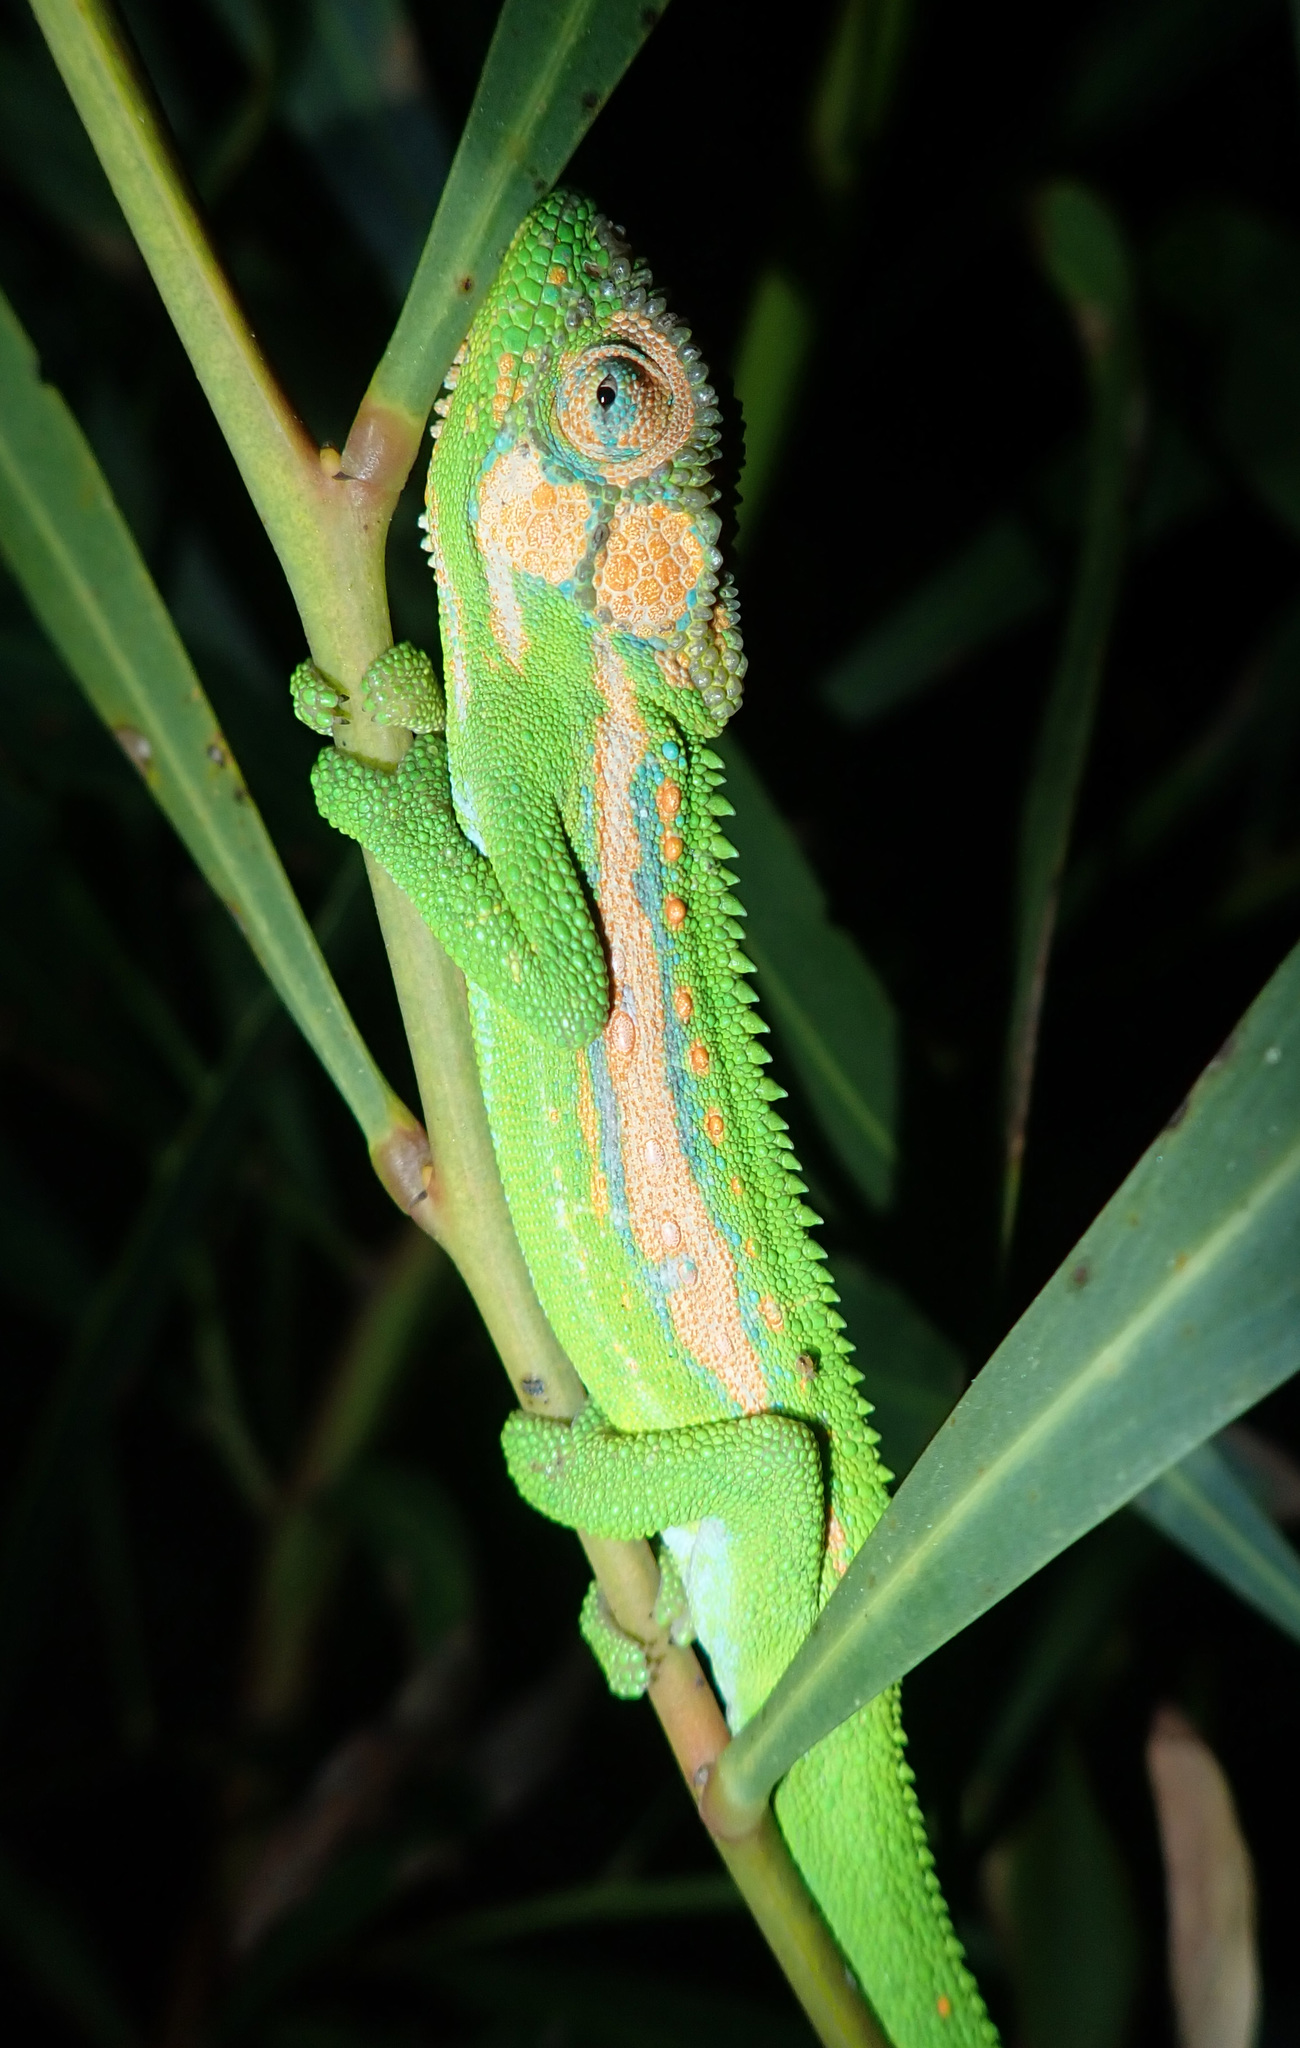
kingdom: Animalia
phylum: Chordata
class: Squamata
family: Chamaeleonidae
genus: Bradypodion
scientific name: Bradypodion pumilum
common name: Cape dwarf chameleon
